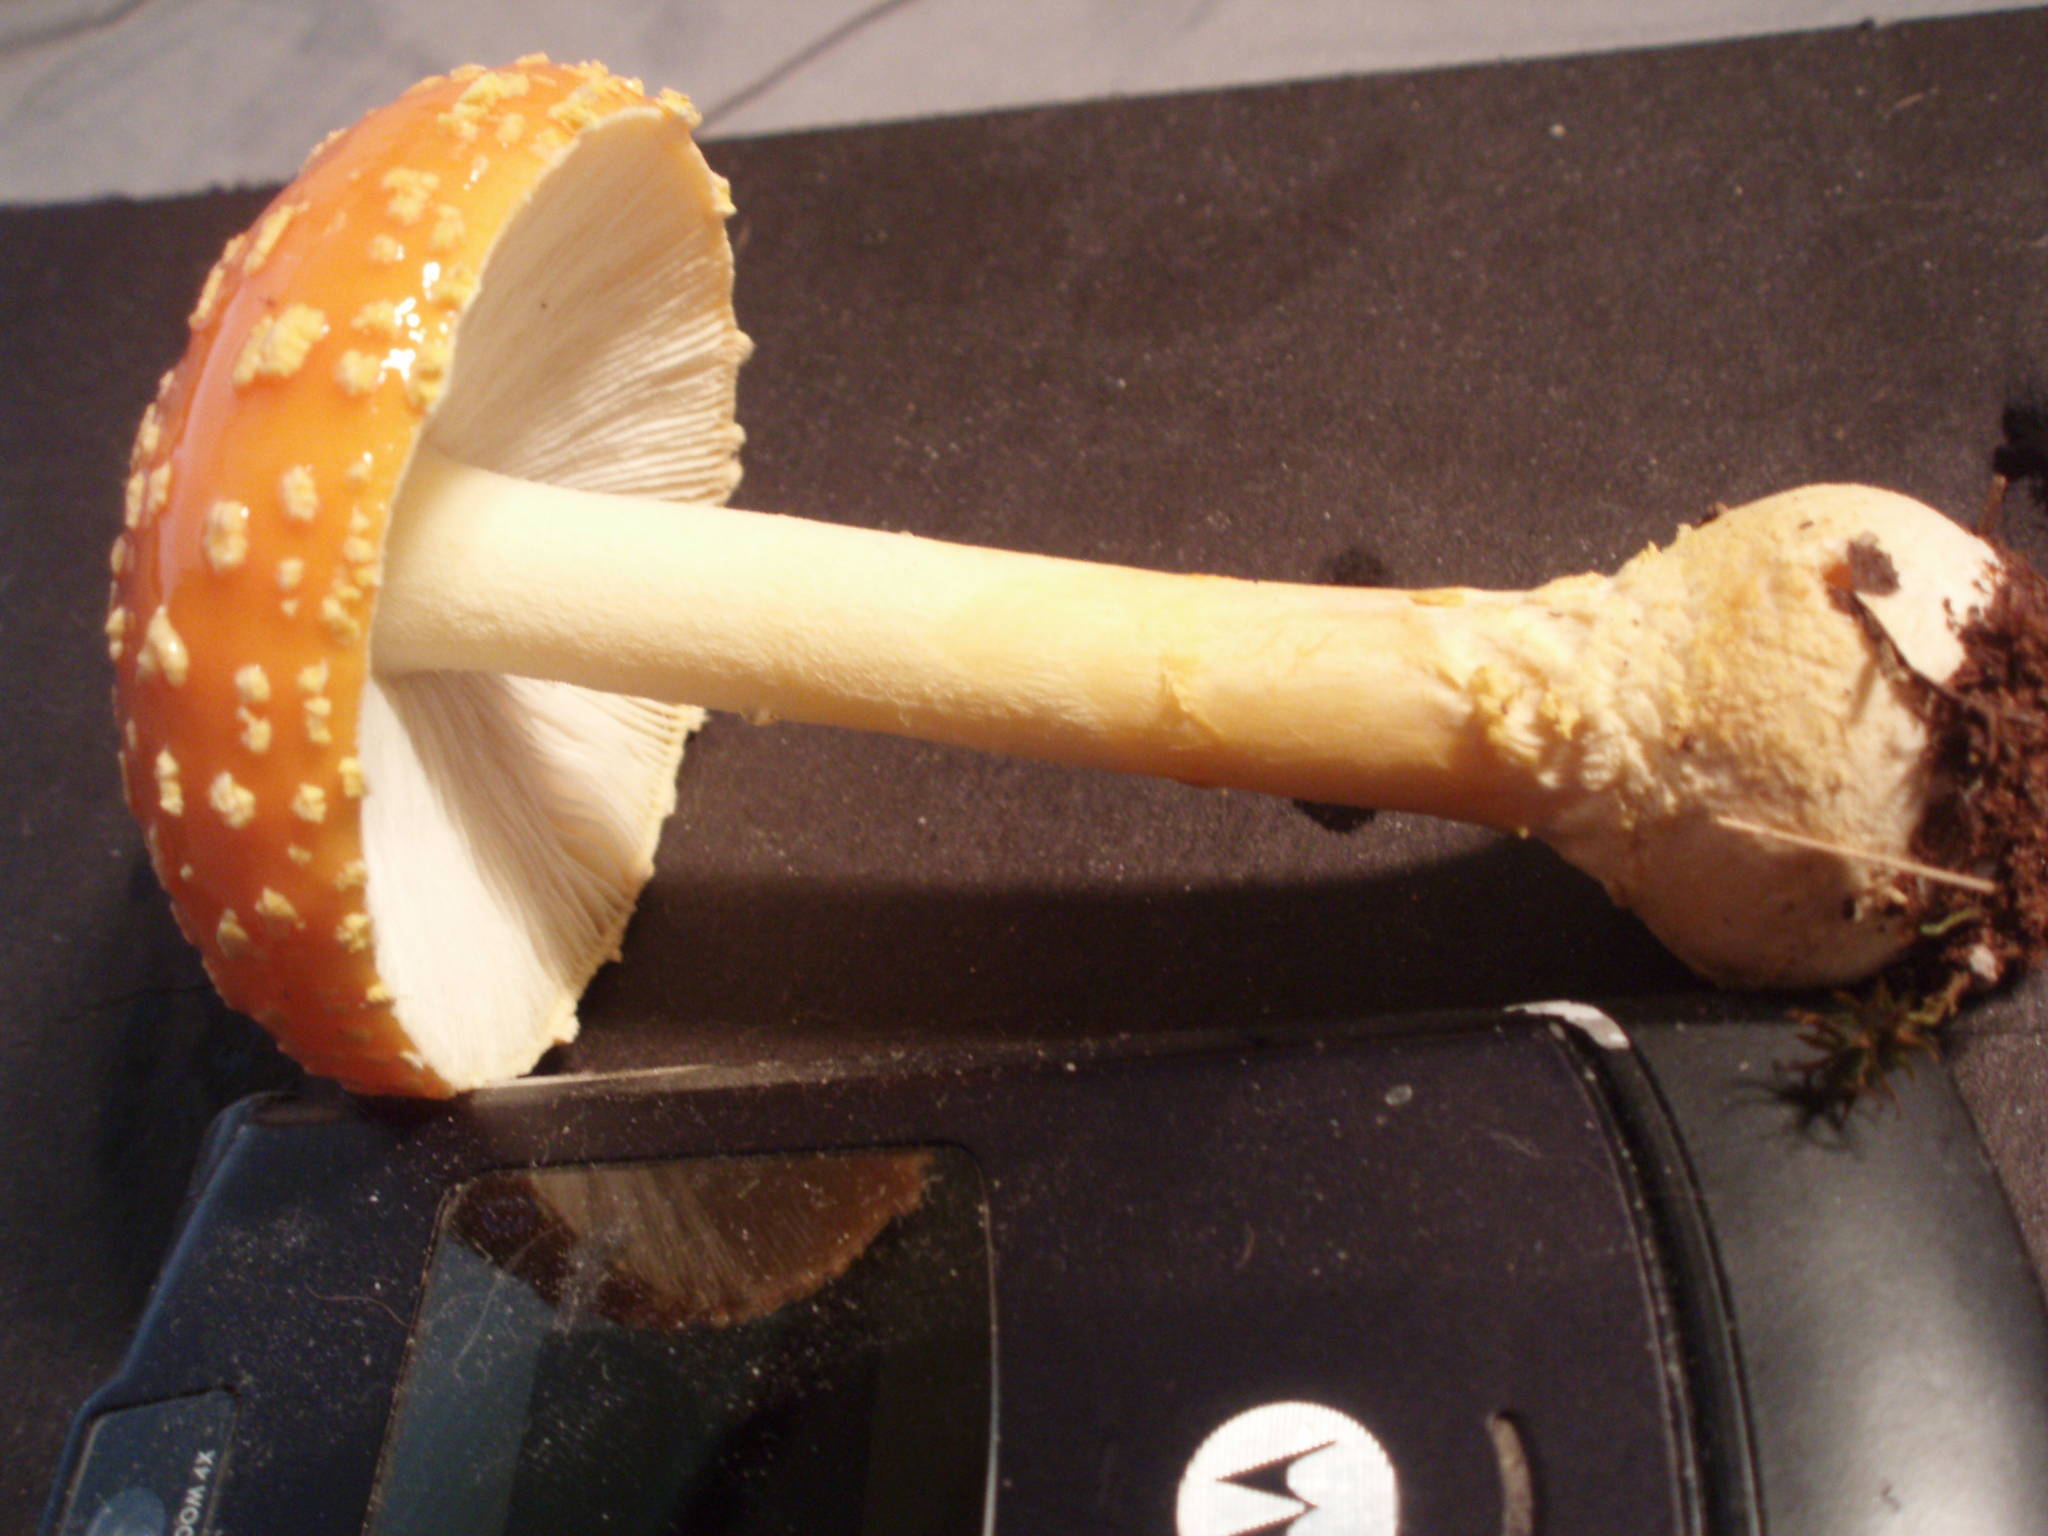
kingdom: Fungi
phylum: Basidiomycota
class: Agaricomycetes
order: Agaricales
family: Amanitaceae
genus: Amanita
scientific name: Amanita persicina
